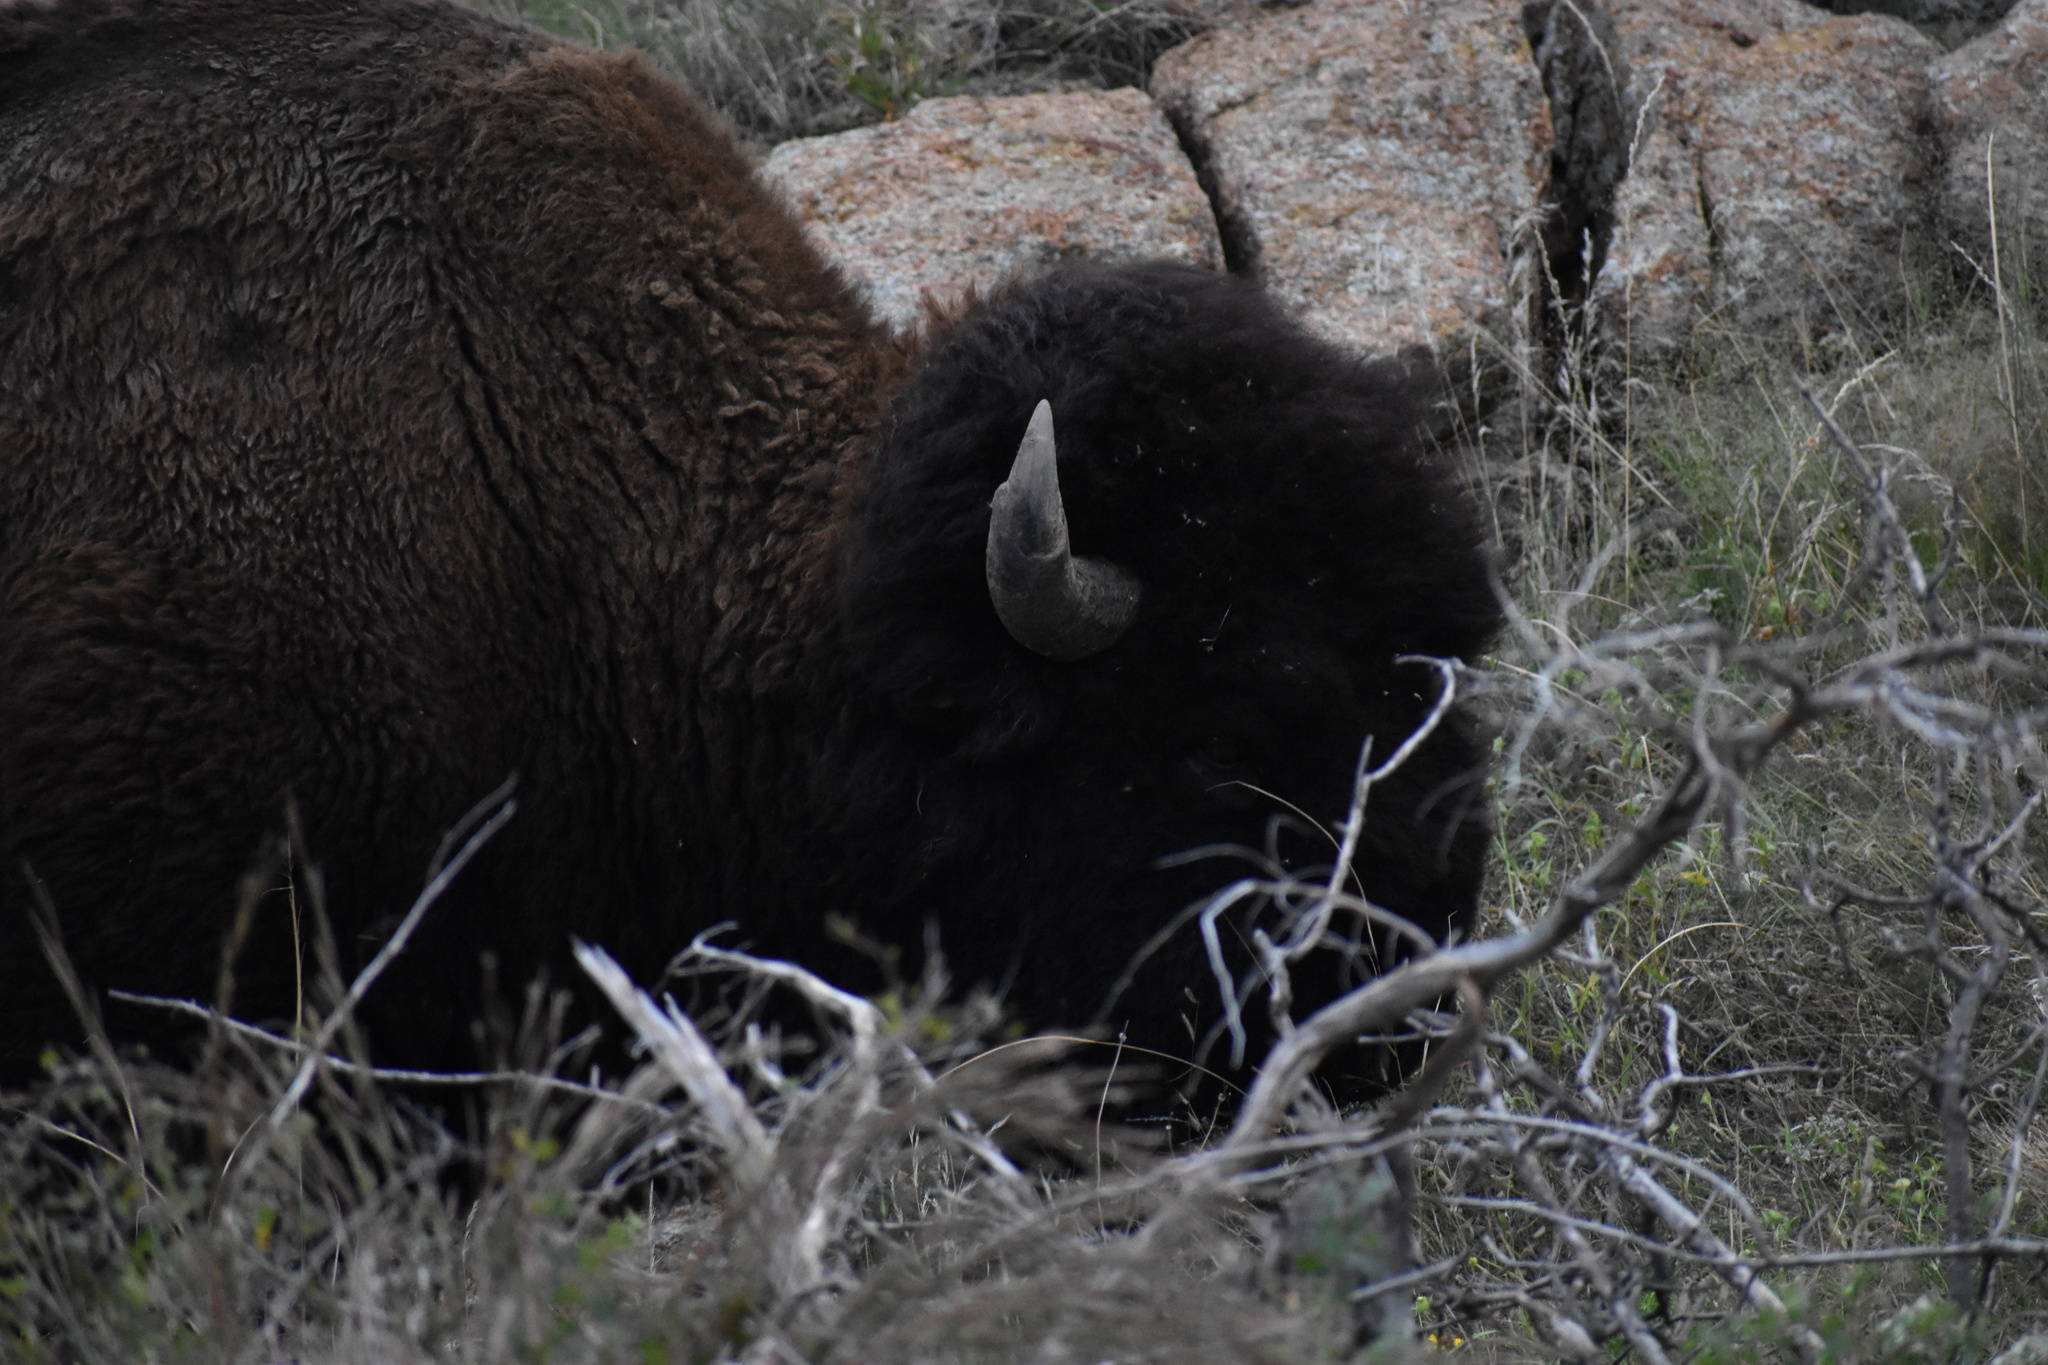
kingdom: Animalia
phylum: Chordata
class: Mammalia
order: Artiodactyla
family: Bovidae
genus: Bison
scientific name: Bison bison
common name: American bison
